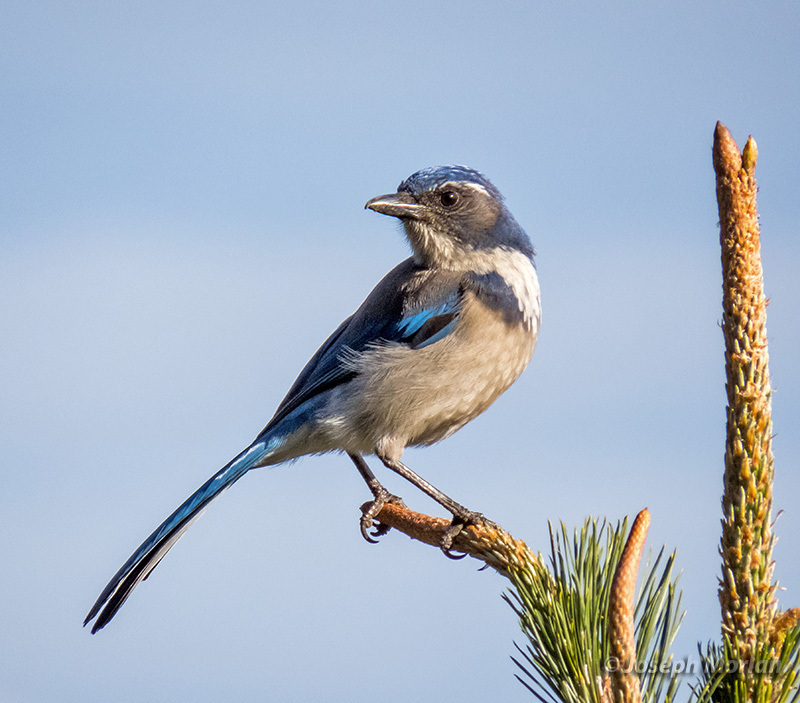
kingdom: Animalia
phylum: Chordata
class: Aves
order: Passeriformes
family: Corvidae
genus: Aphelocoma
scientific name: Aphelocoma californica
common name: California scrub-jay
